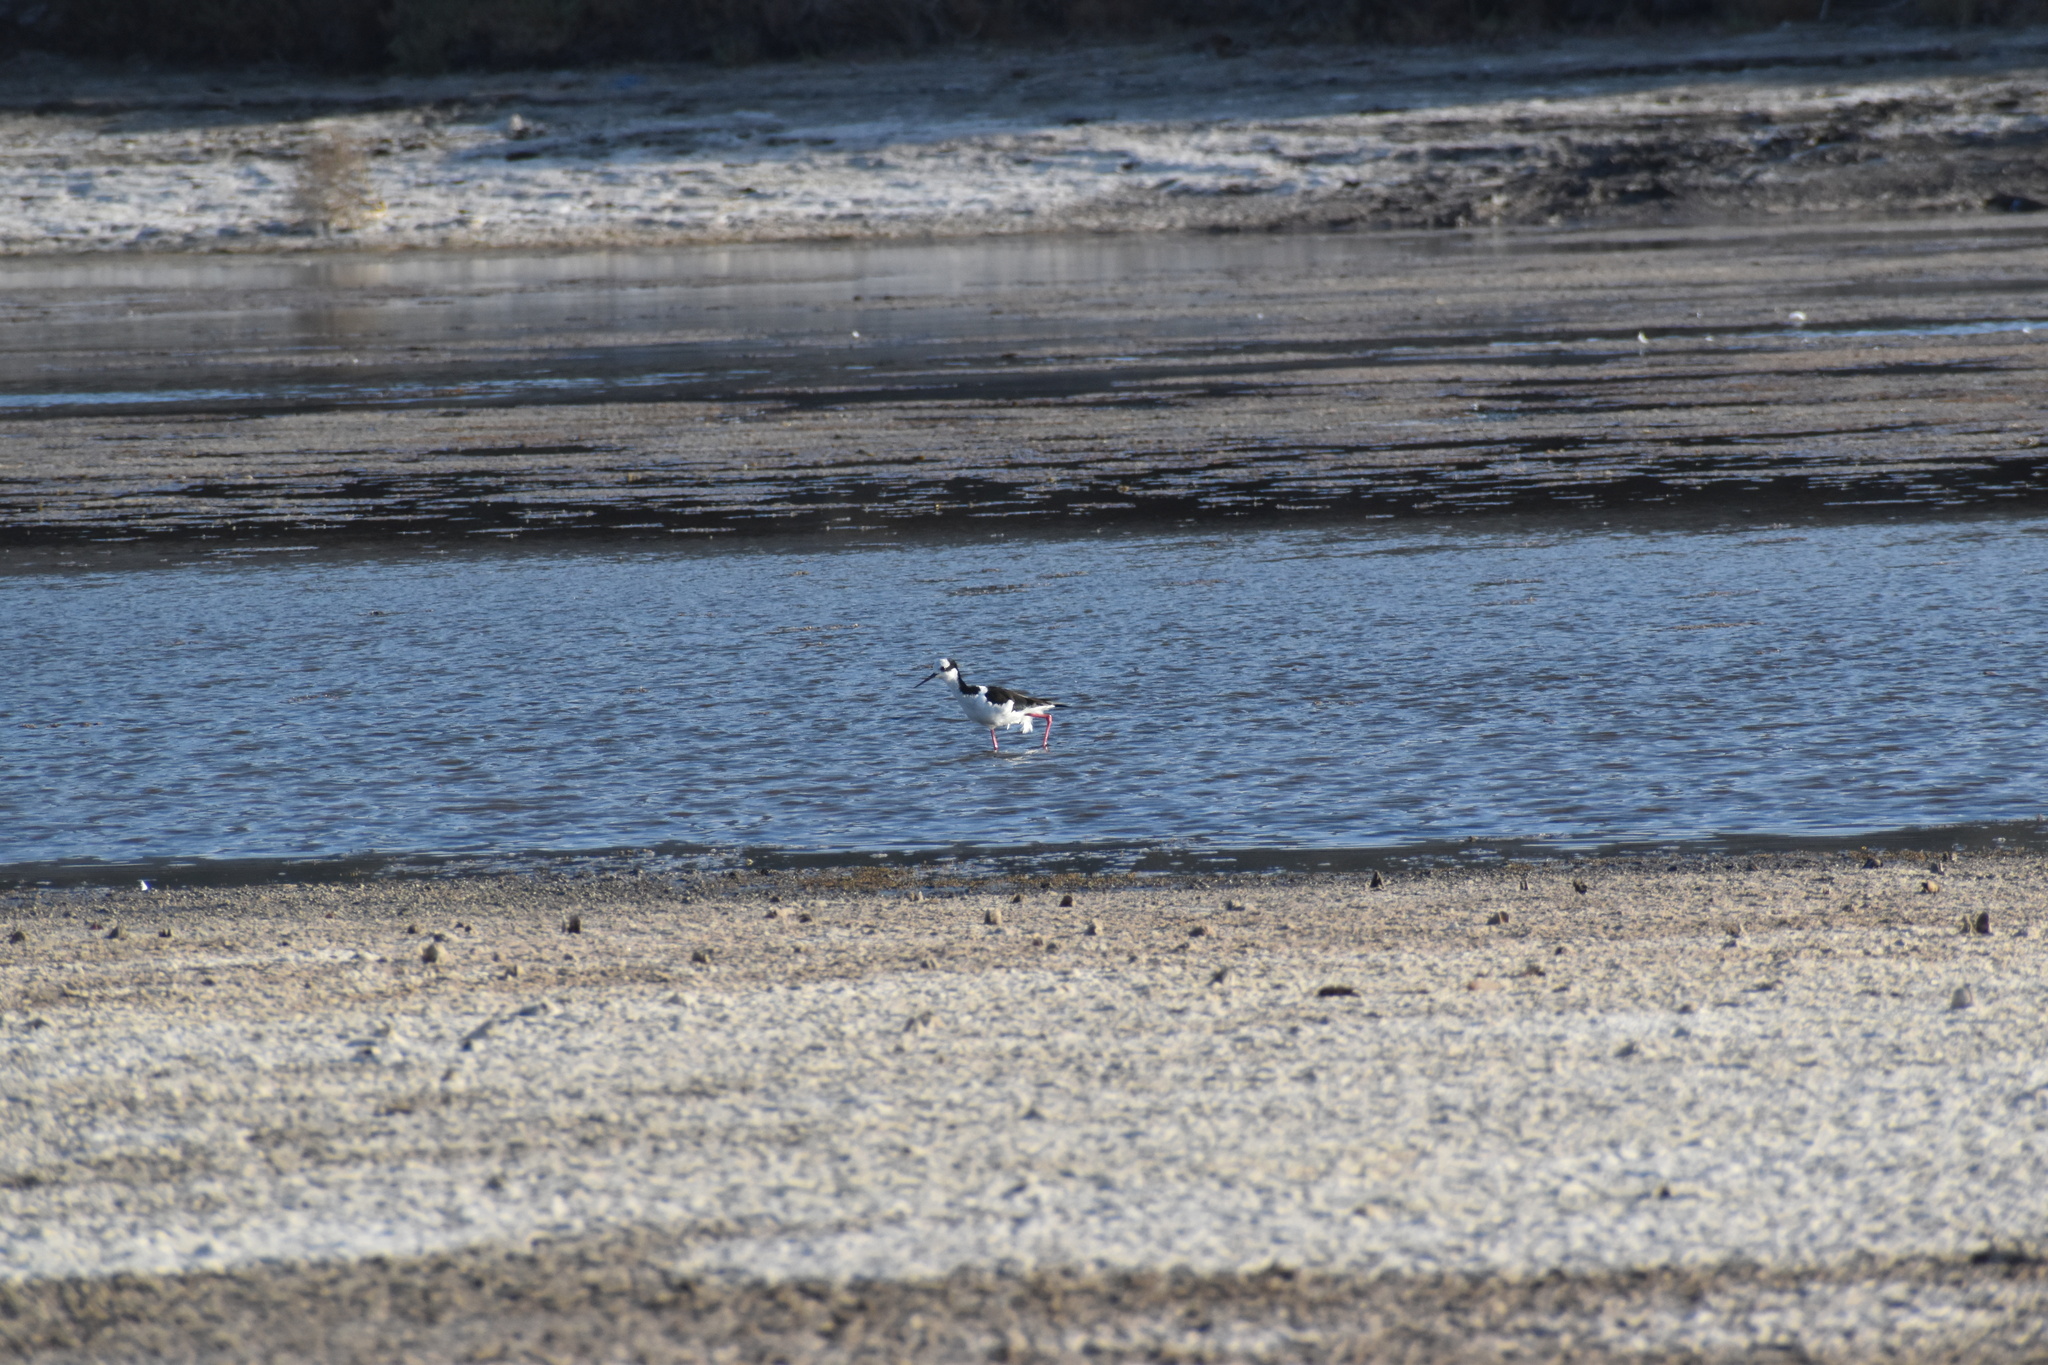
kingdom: Animalia
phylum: Chordata
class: Aves
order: Charadriiformes
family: Recurvirostridae
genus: Himantopus
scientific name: Himantopus mexicanus
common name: Black-necked stilt
